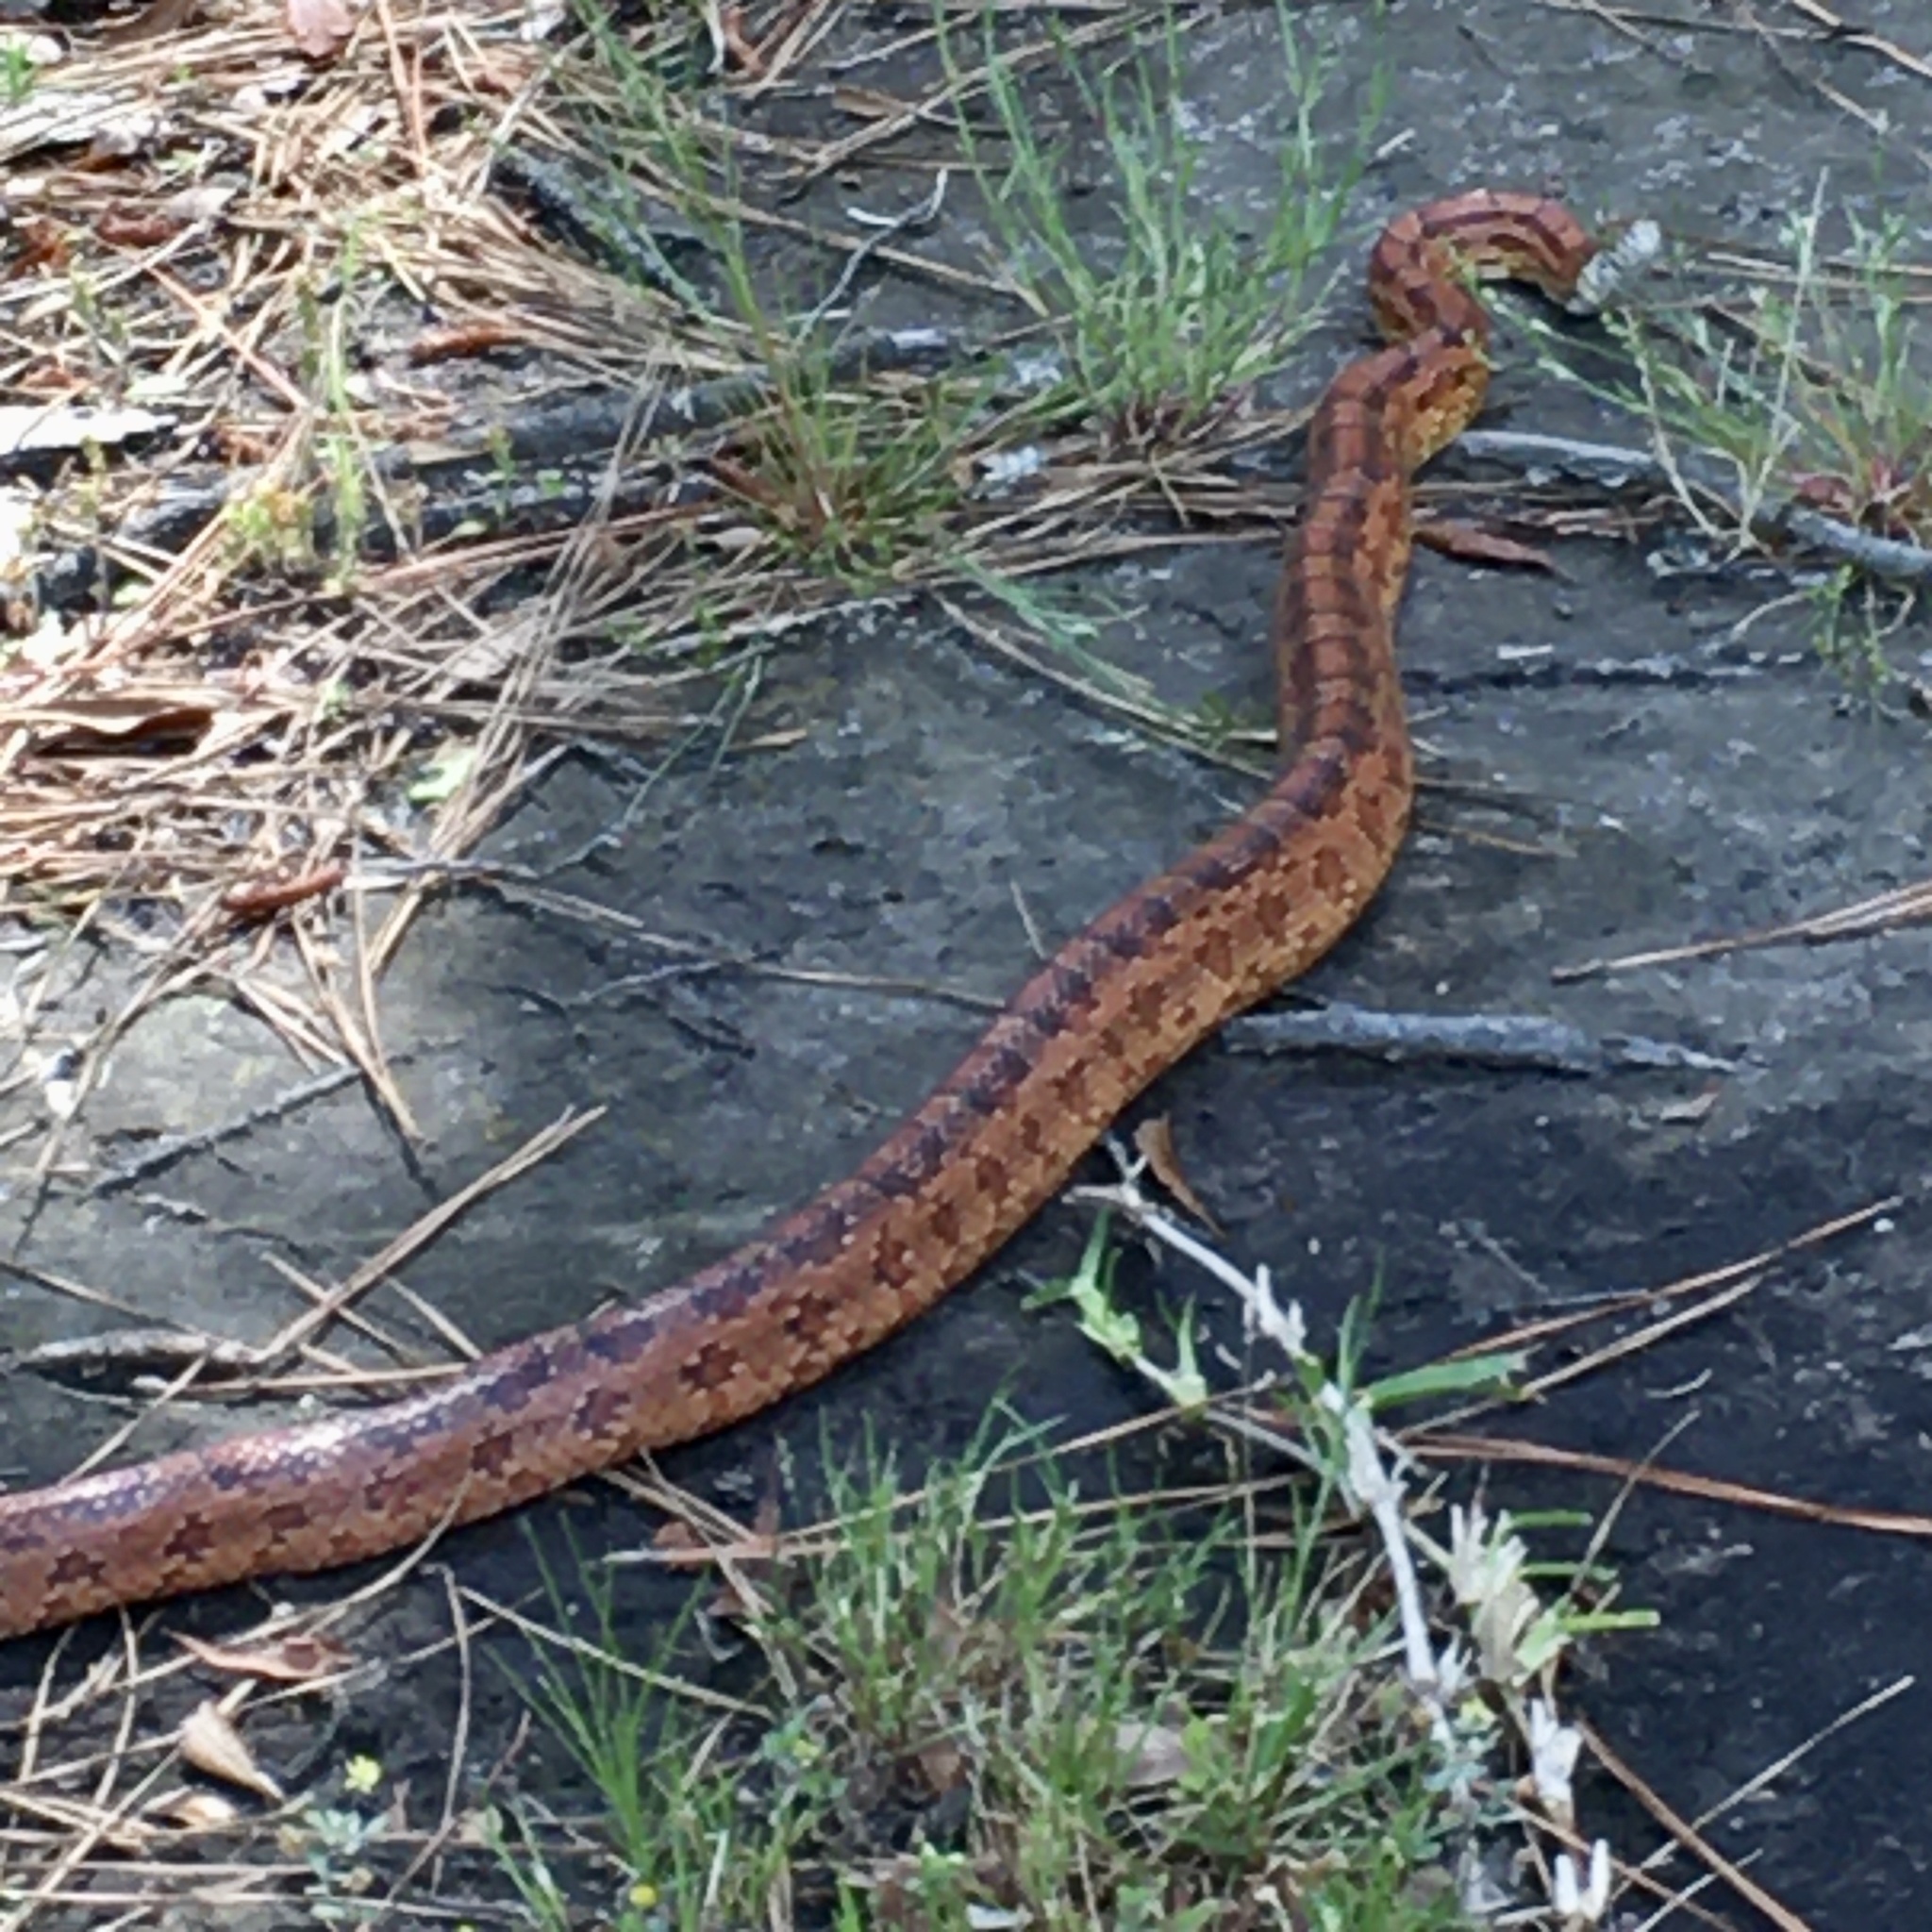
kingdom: Animalia
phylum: Chordata
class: Squamata
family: Colubridae
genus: Pantherophis
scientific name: Pantherophis guttatus
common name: Red cornsnake
